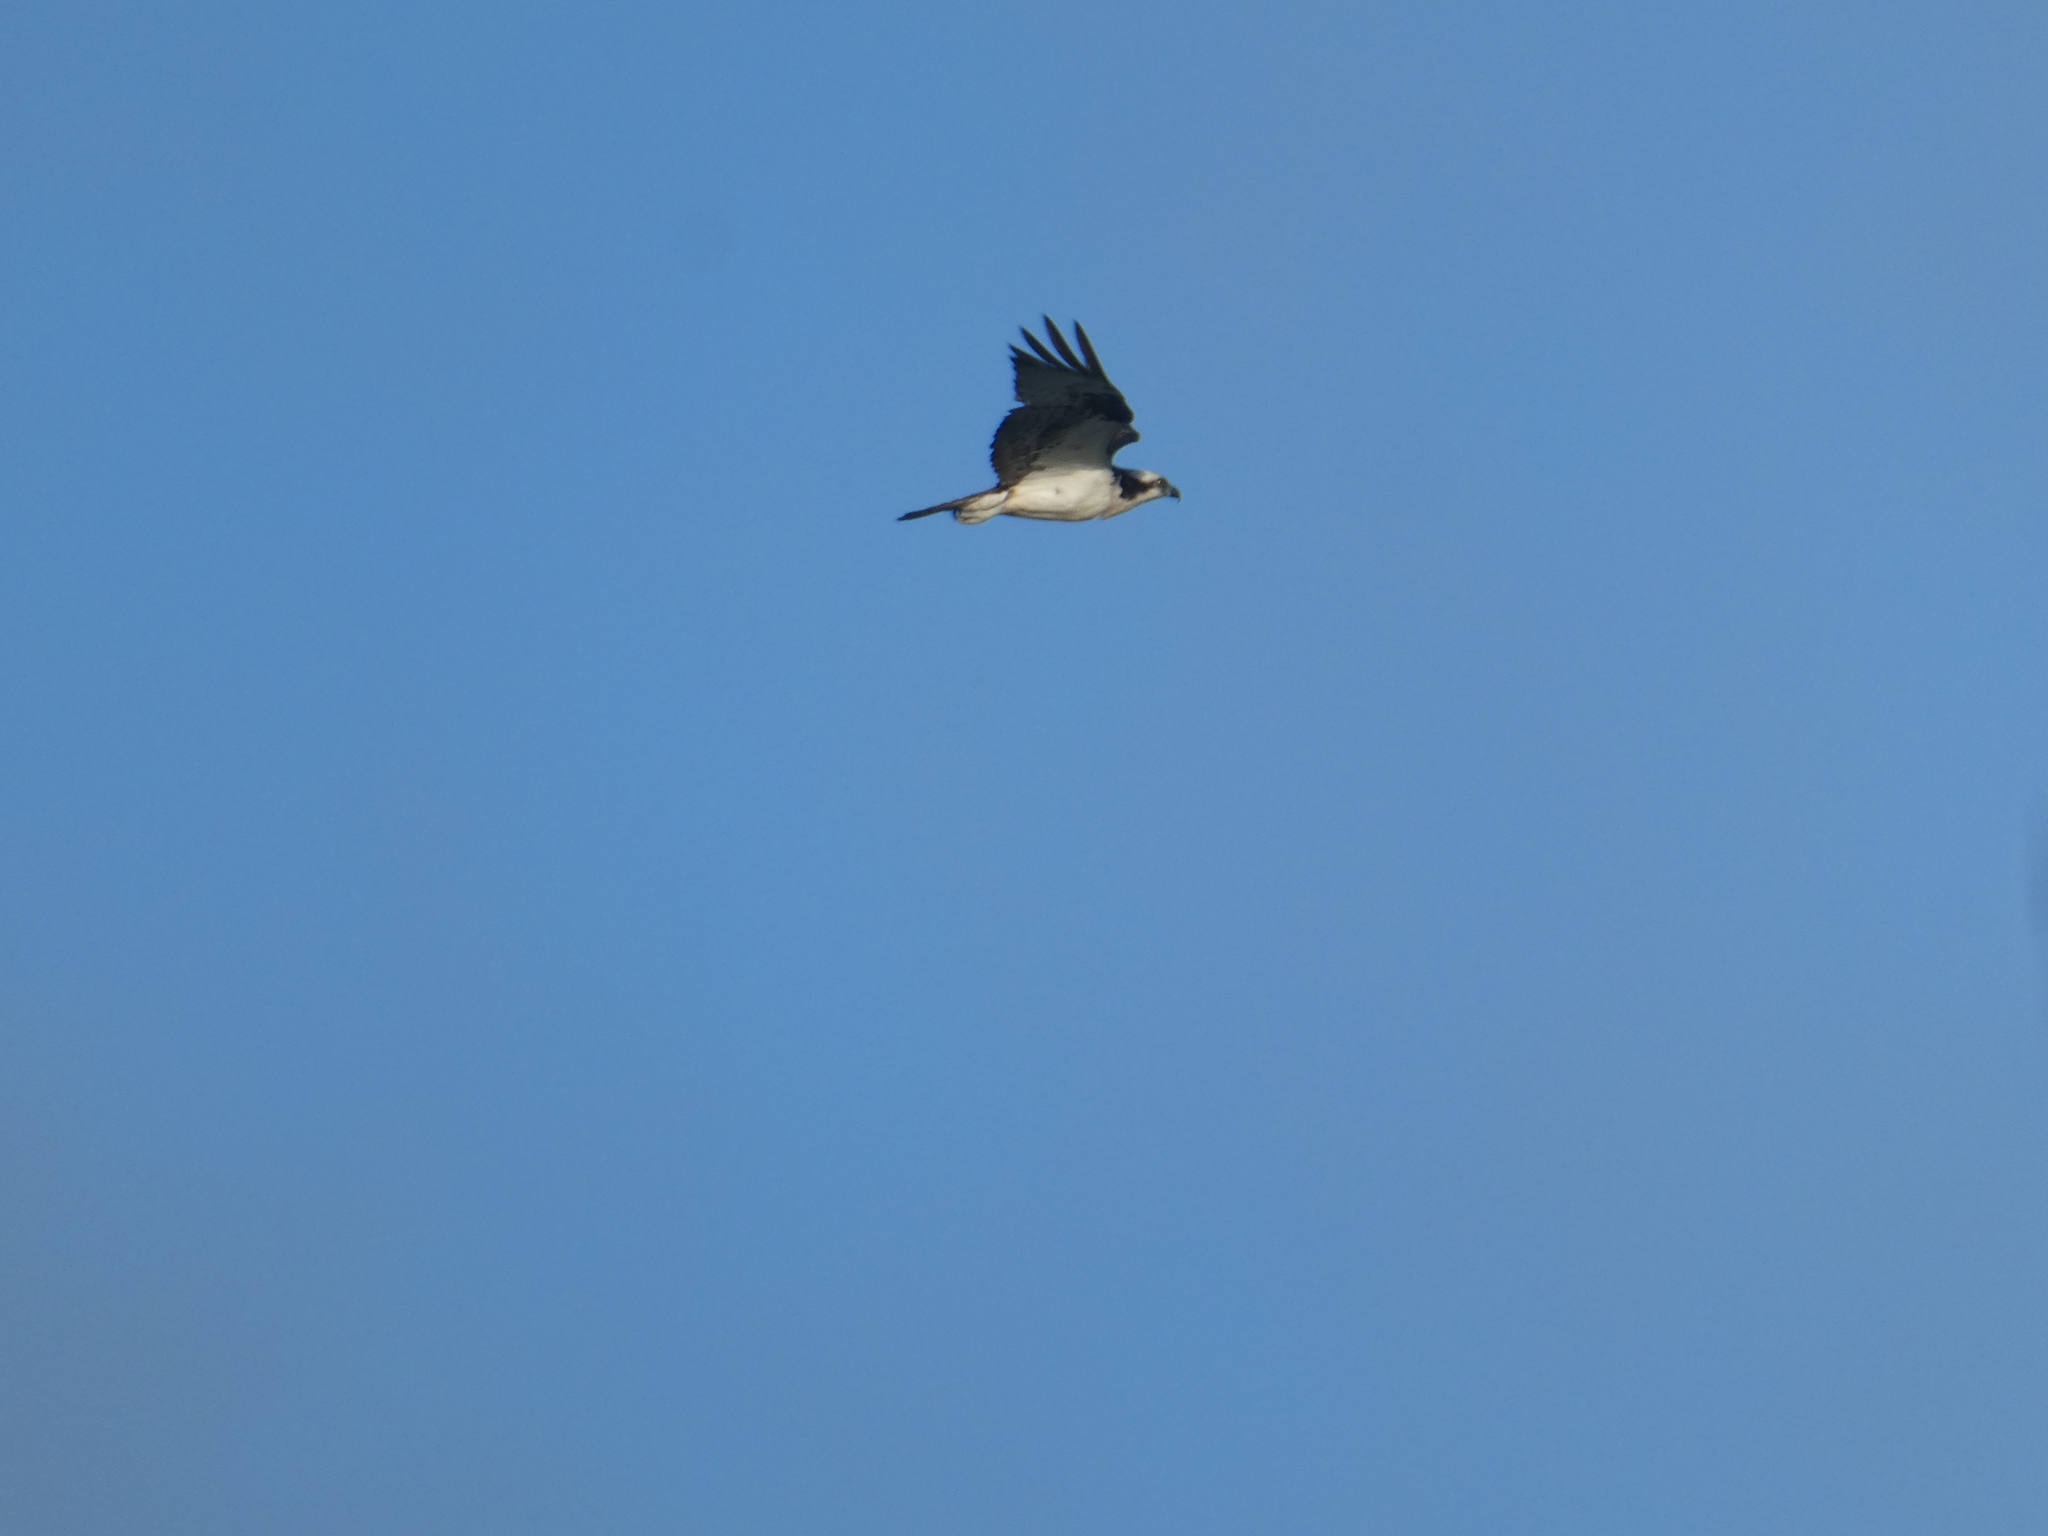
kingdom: Animalia
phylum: Chordata
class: Aves
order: Accipitriformes
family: Pandionidae
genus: Pandion
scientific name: Pandion haliaetus
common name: Osprey
